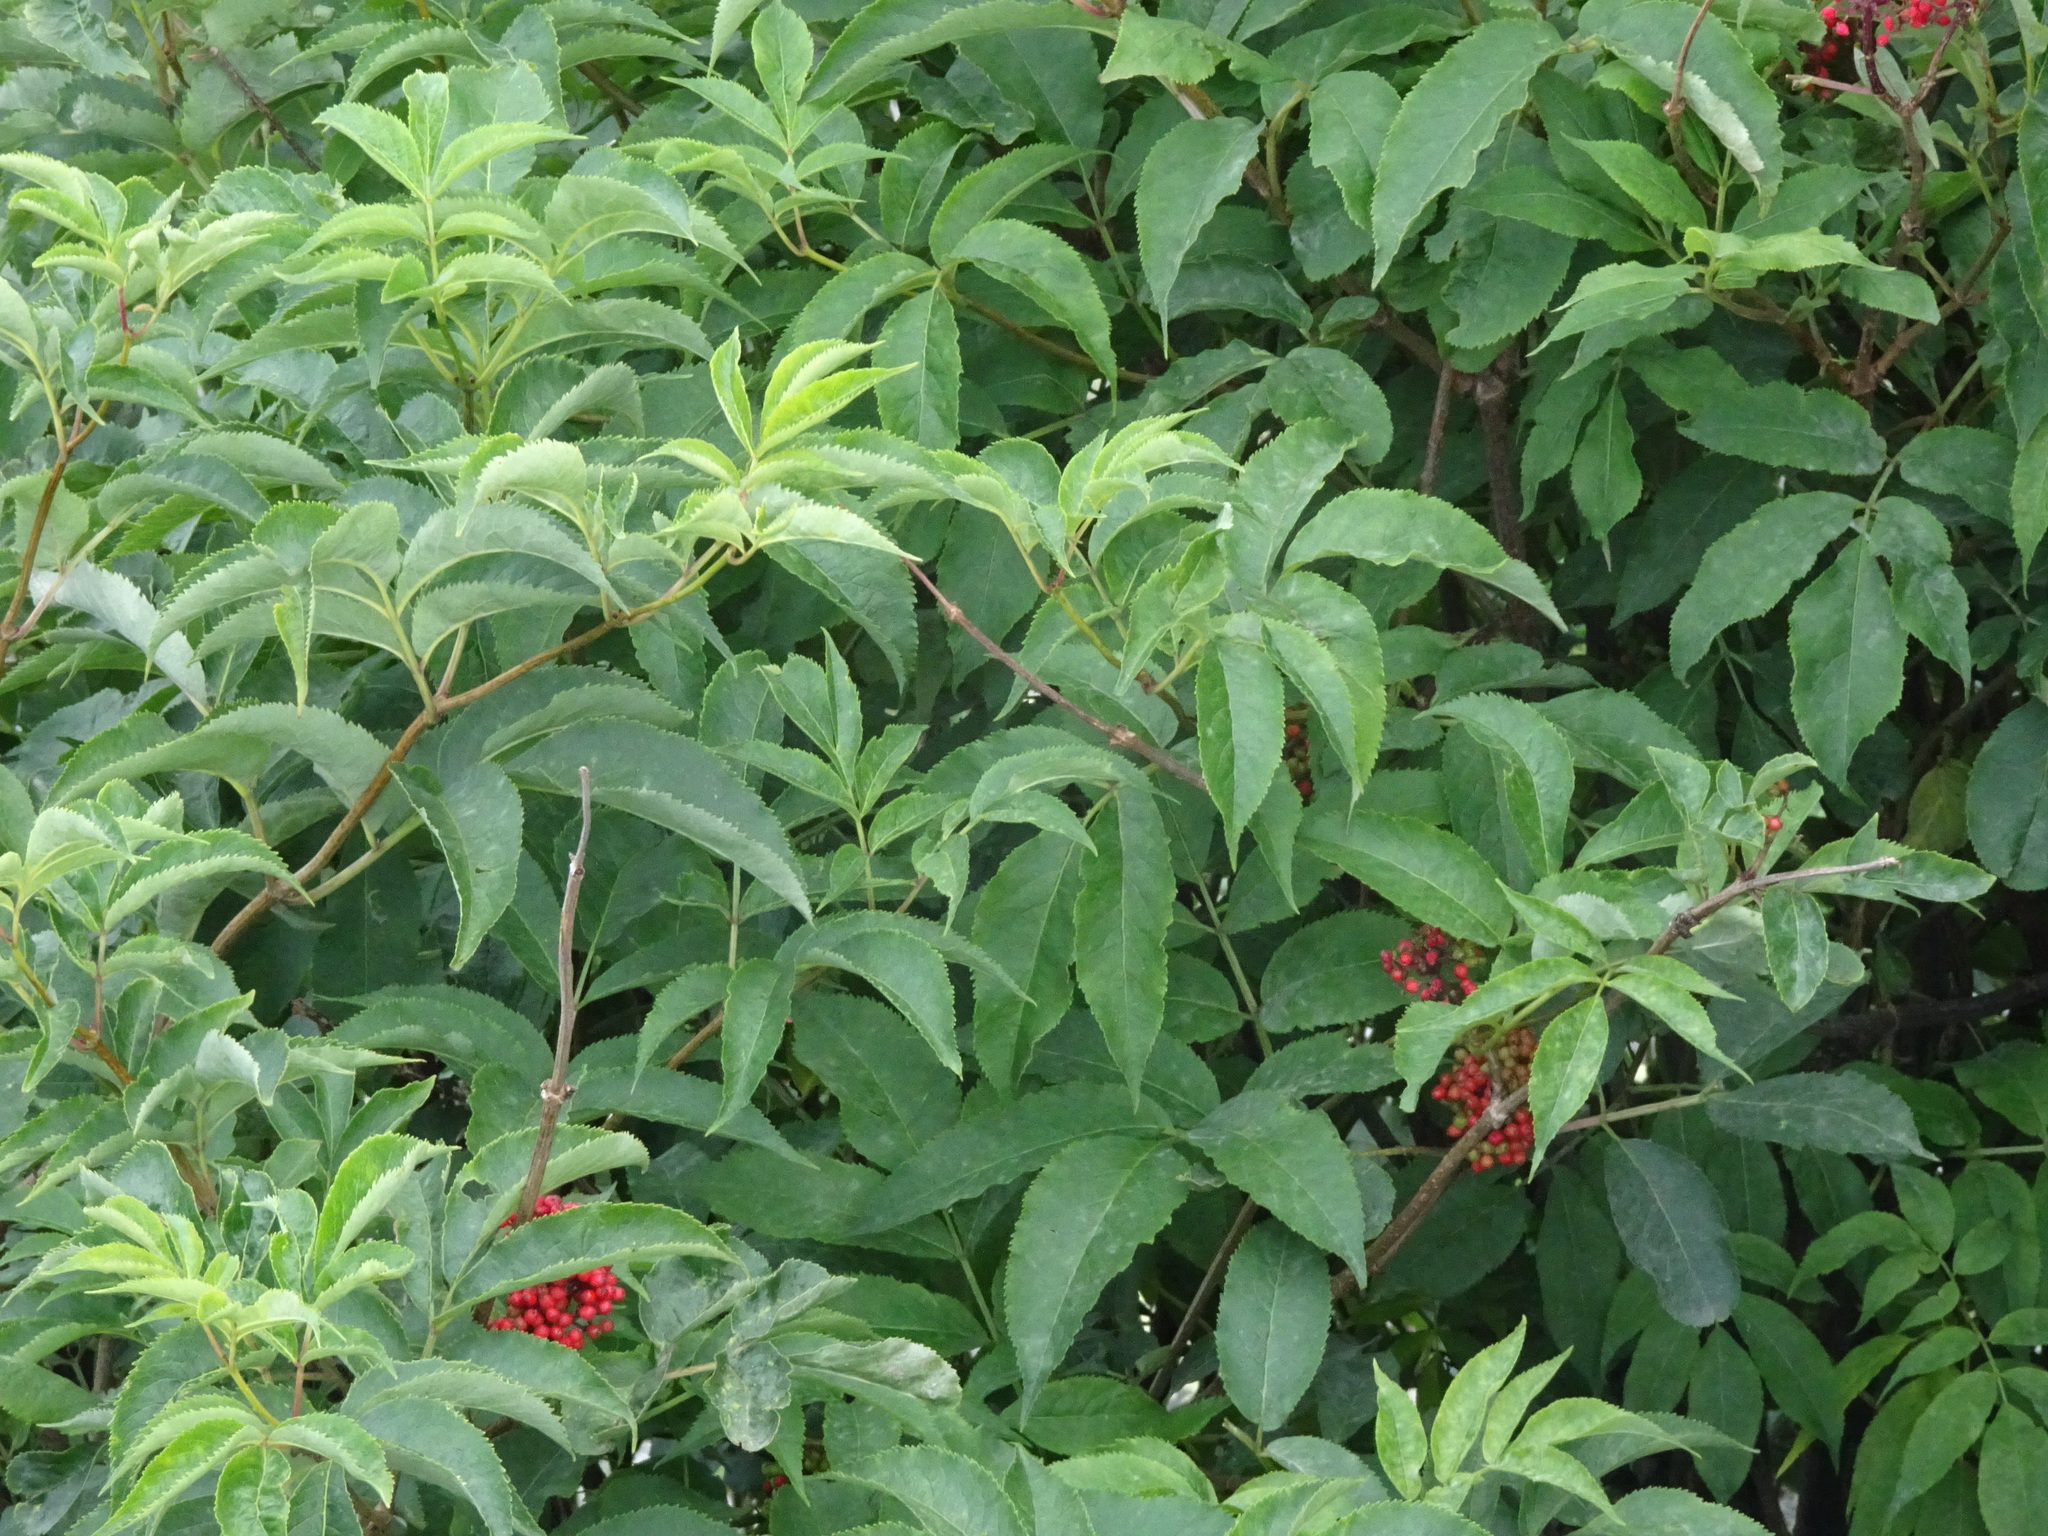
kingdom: Plantae
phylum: Tracheophyta
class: Magnoliopsida
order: Dipsacales
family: Viburnaceae
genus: Sambucus
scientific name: Sambucus racemosa
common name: Red-berried elder
